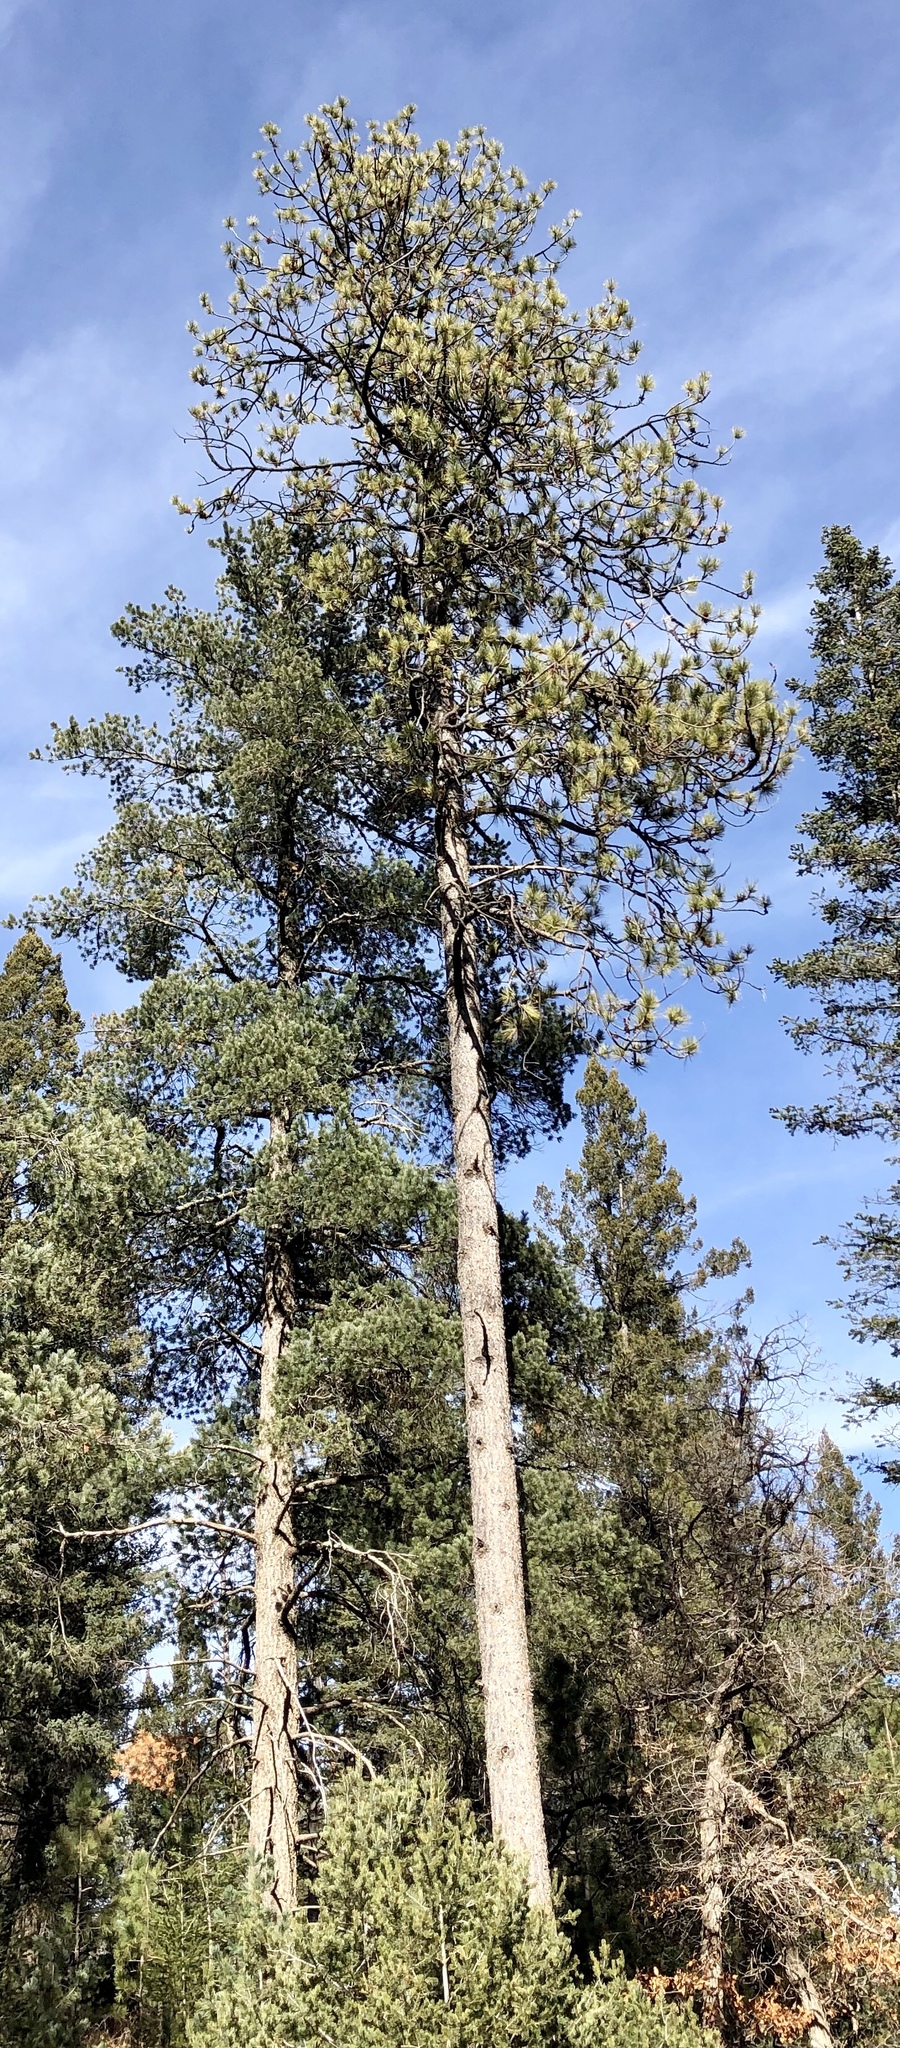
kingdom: Plantae
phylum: Tracheophyta
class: Pinopsida
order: Pinales
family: Pinaceae
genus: Pinus
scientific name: Pinus ponderosa
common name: Western yellow-pine
